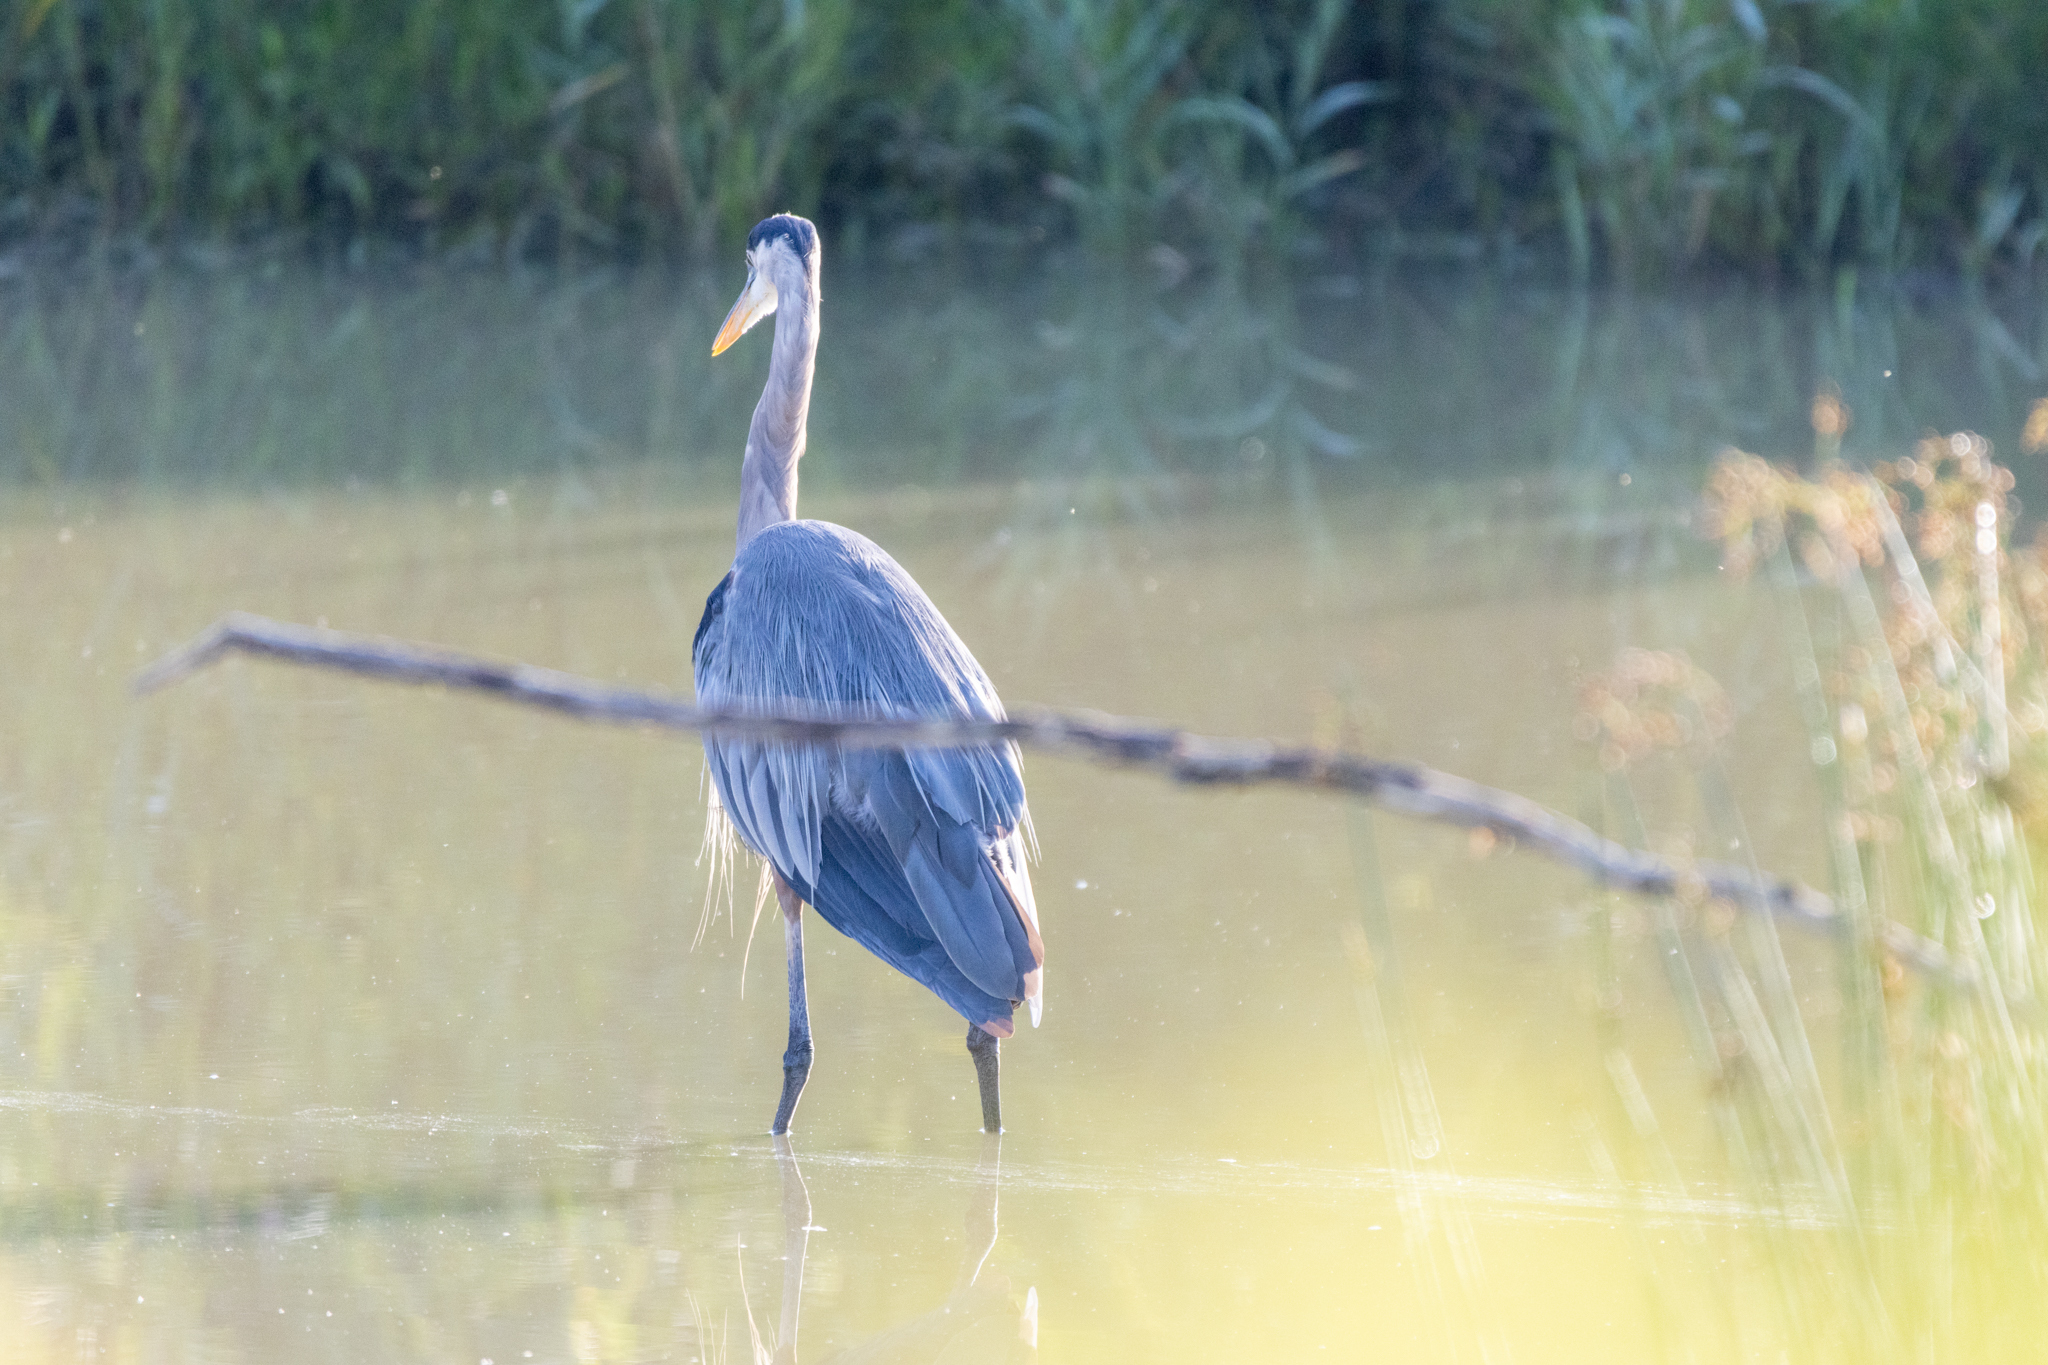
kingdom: Animalia
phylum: Chordata
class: Aves
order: Pelecaniformes
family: Ardeidae
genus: Ardea
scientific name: Ardea herodias
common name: Great blue heron
